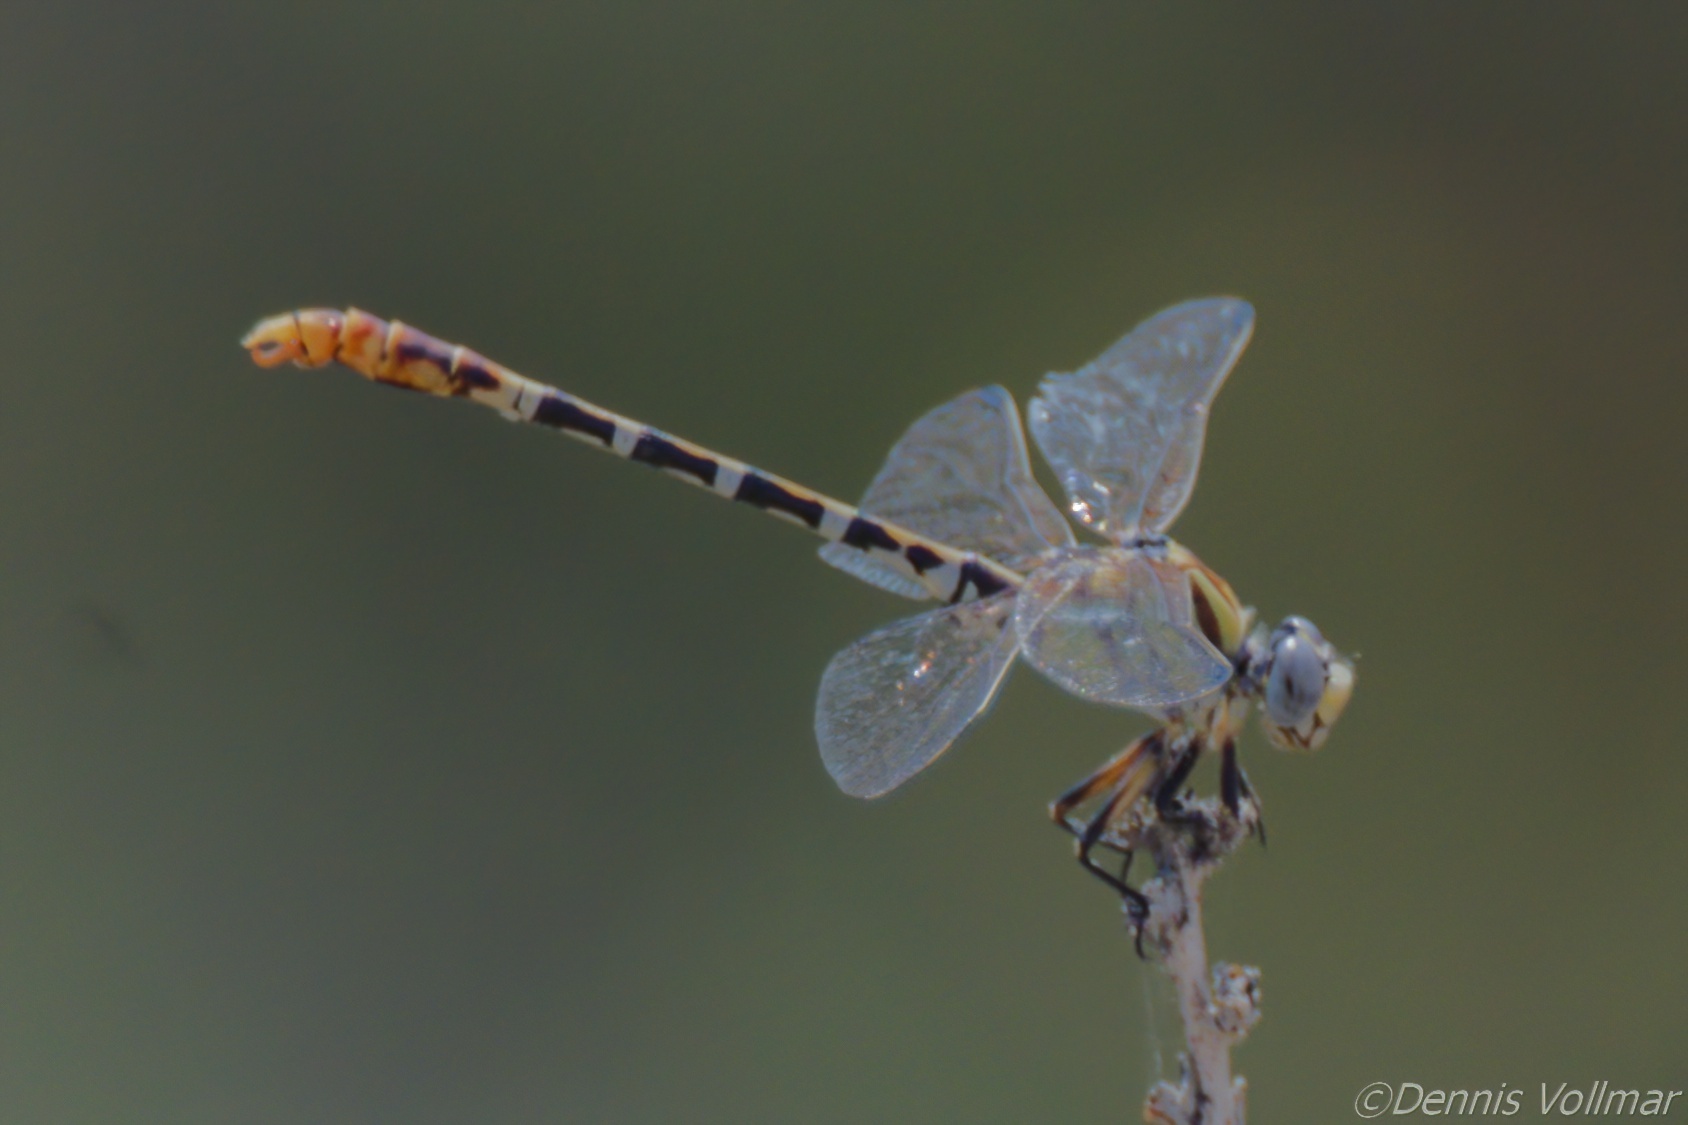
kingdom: Animalia
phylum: Arthropoda
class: Insecta
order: Odonata
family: Gomphidae
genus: Erpetogomphus
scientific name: Erpetogomphus designatus
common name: Eastern ringtail
